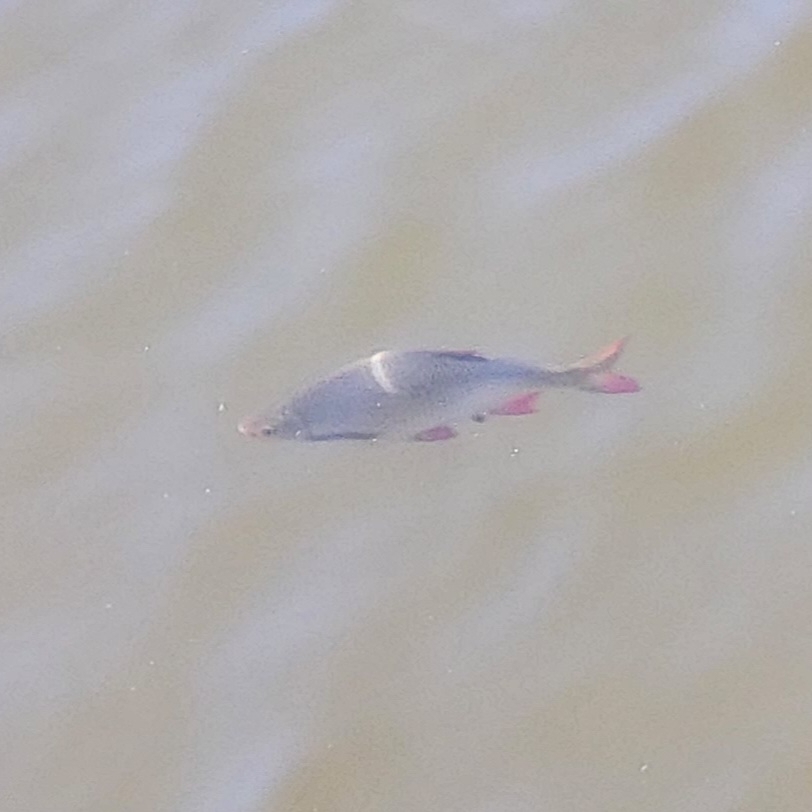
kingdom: Animalia
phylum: Chordata
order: Cypriniformes
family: Cyprinidae
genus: Scardinius
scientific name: Scardinius erythrophthalmus
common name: Rudd
